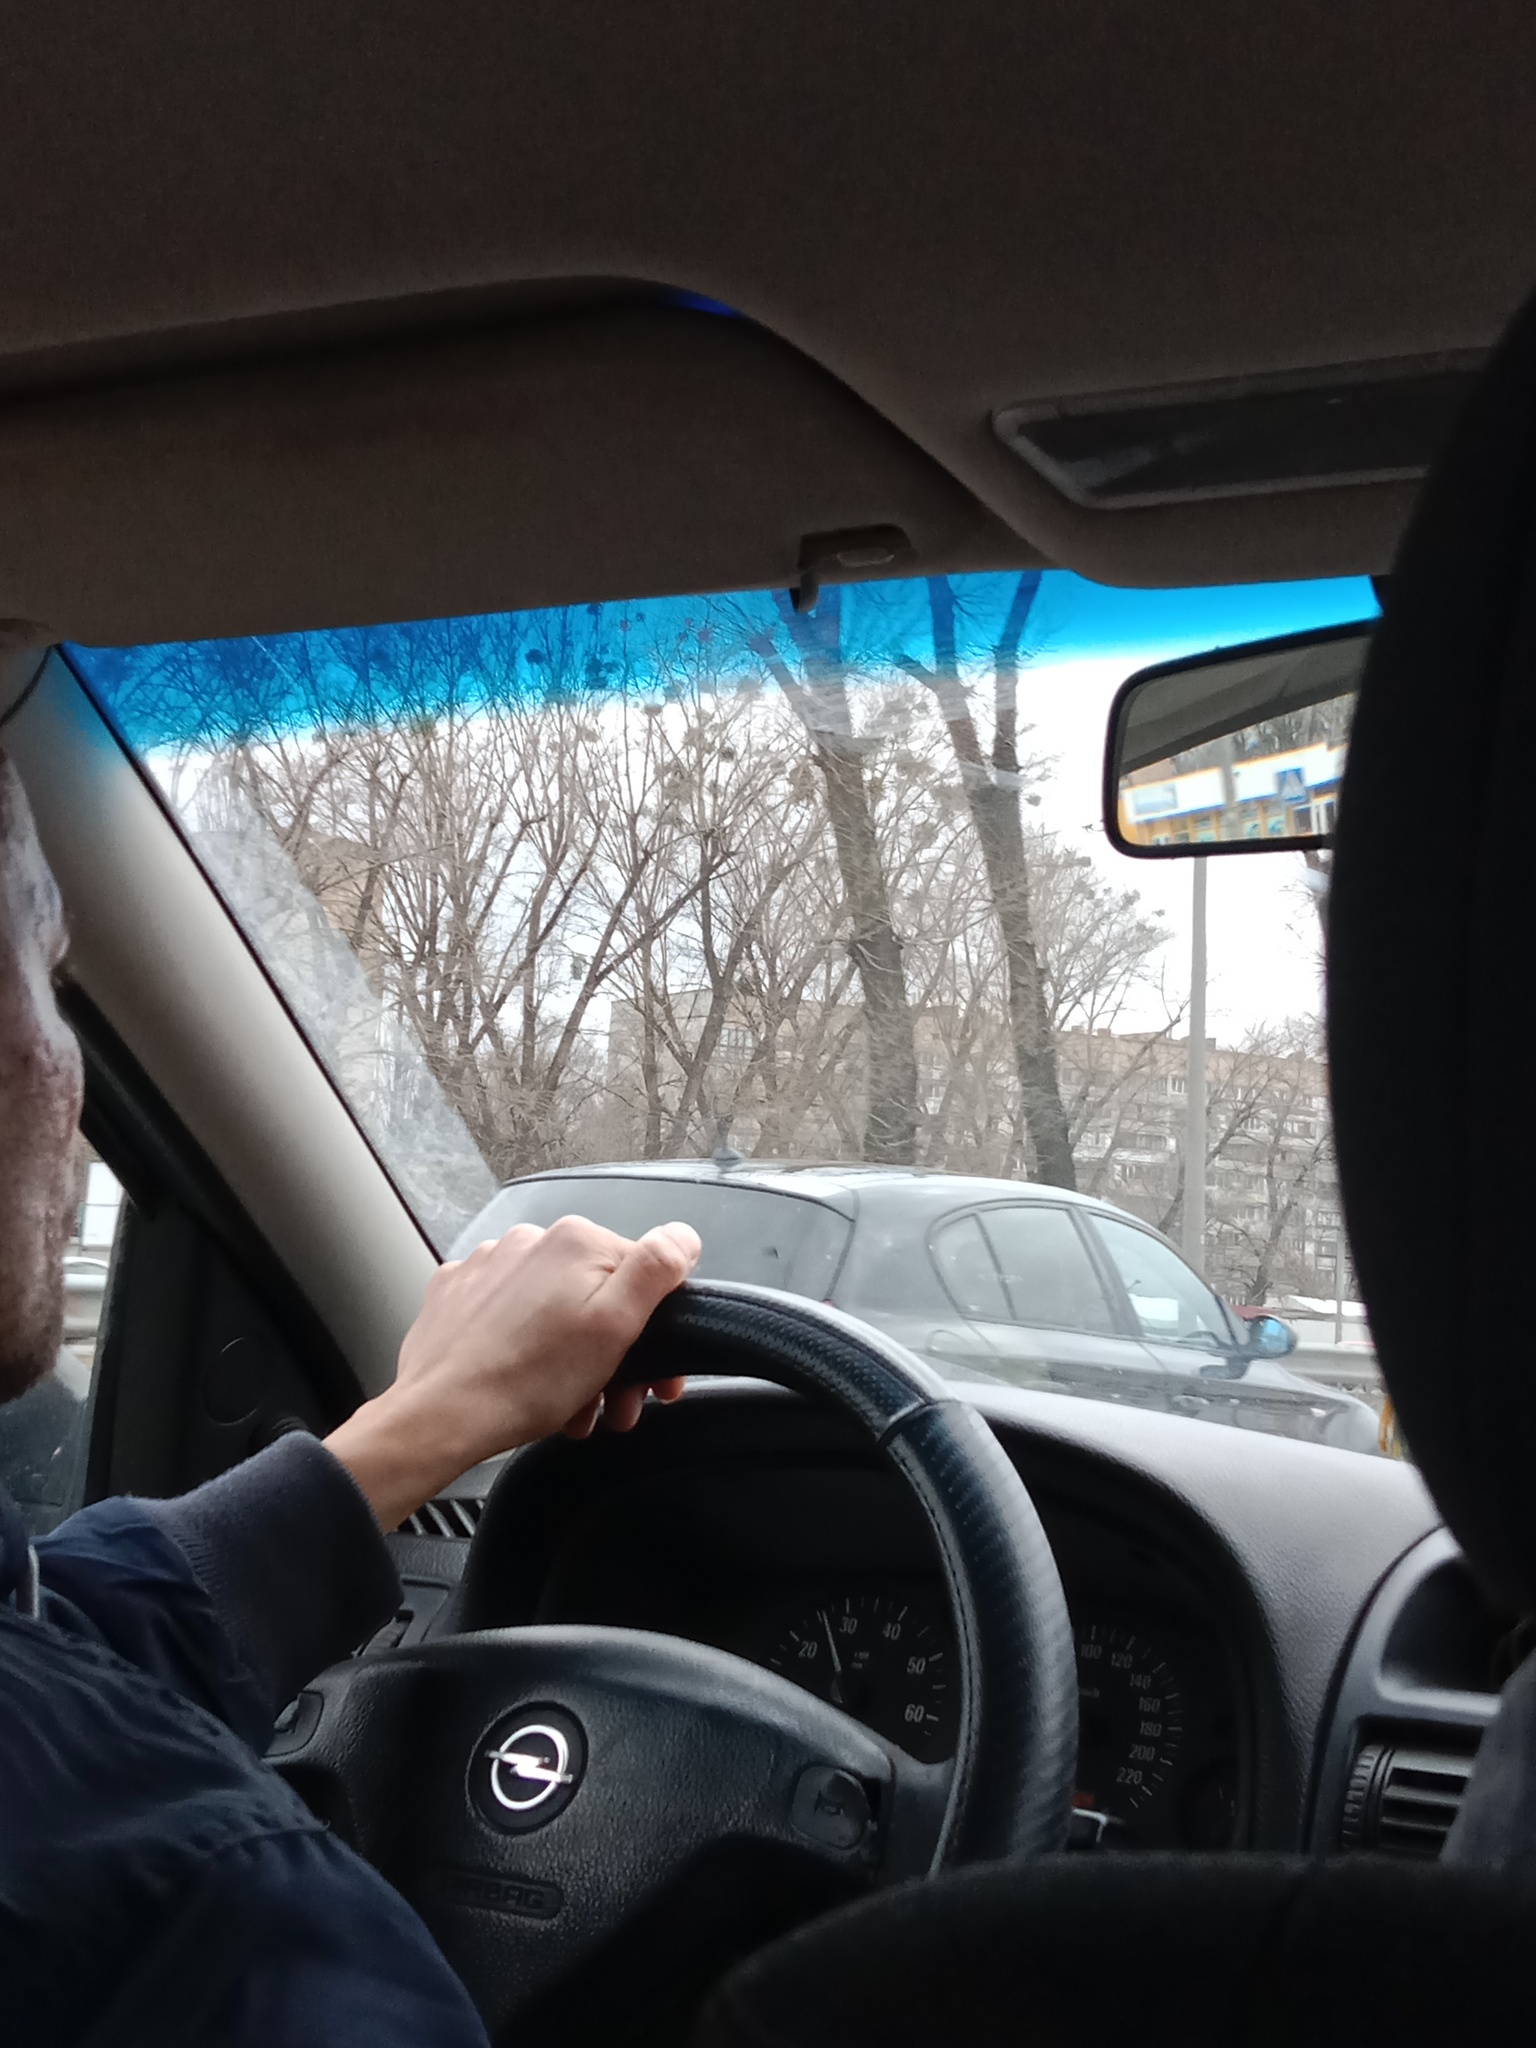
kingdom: Plantae
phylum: Tracheophyta
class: Magnoliopsida
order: Santalales
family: Viscaceae
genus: Viscum
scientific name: Viscum album
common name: Mistletoe
